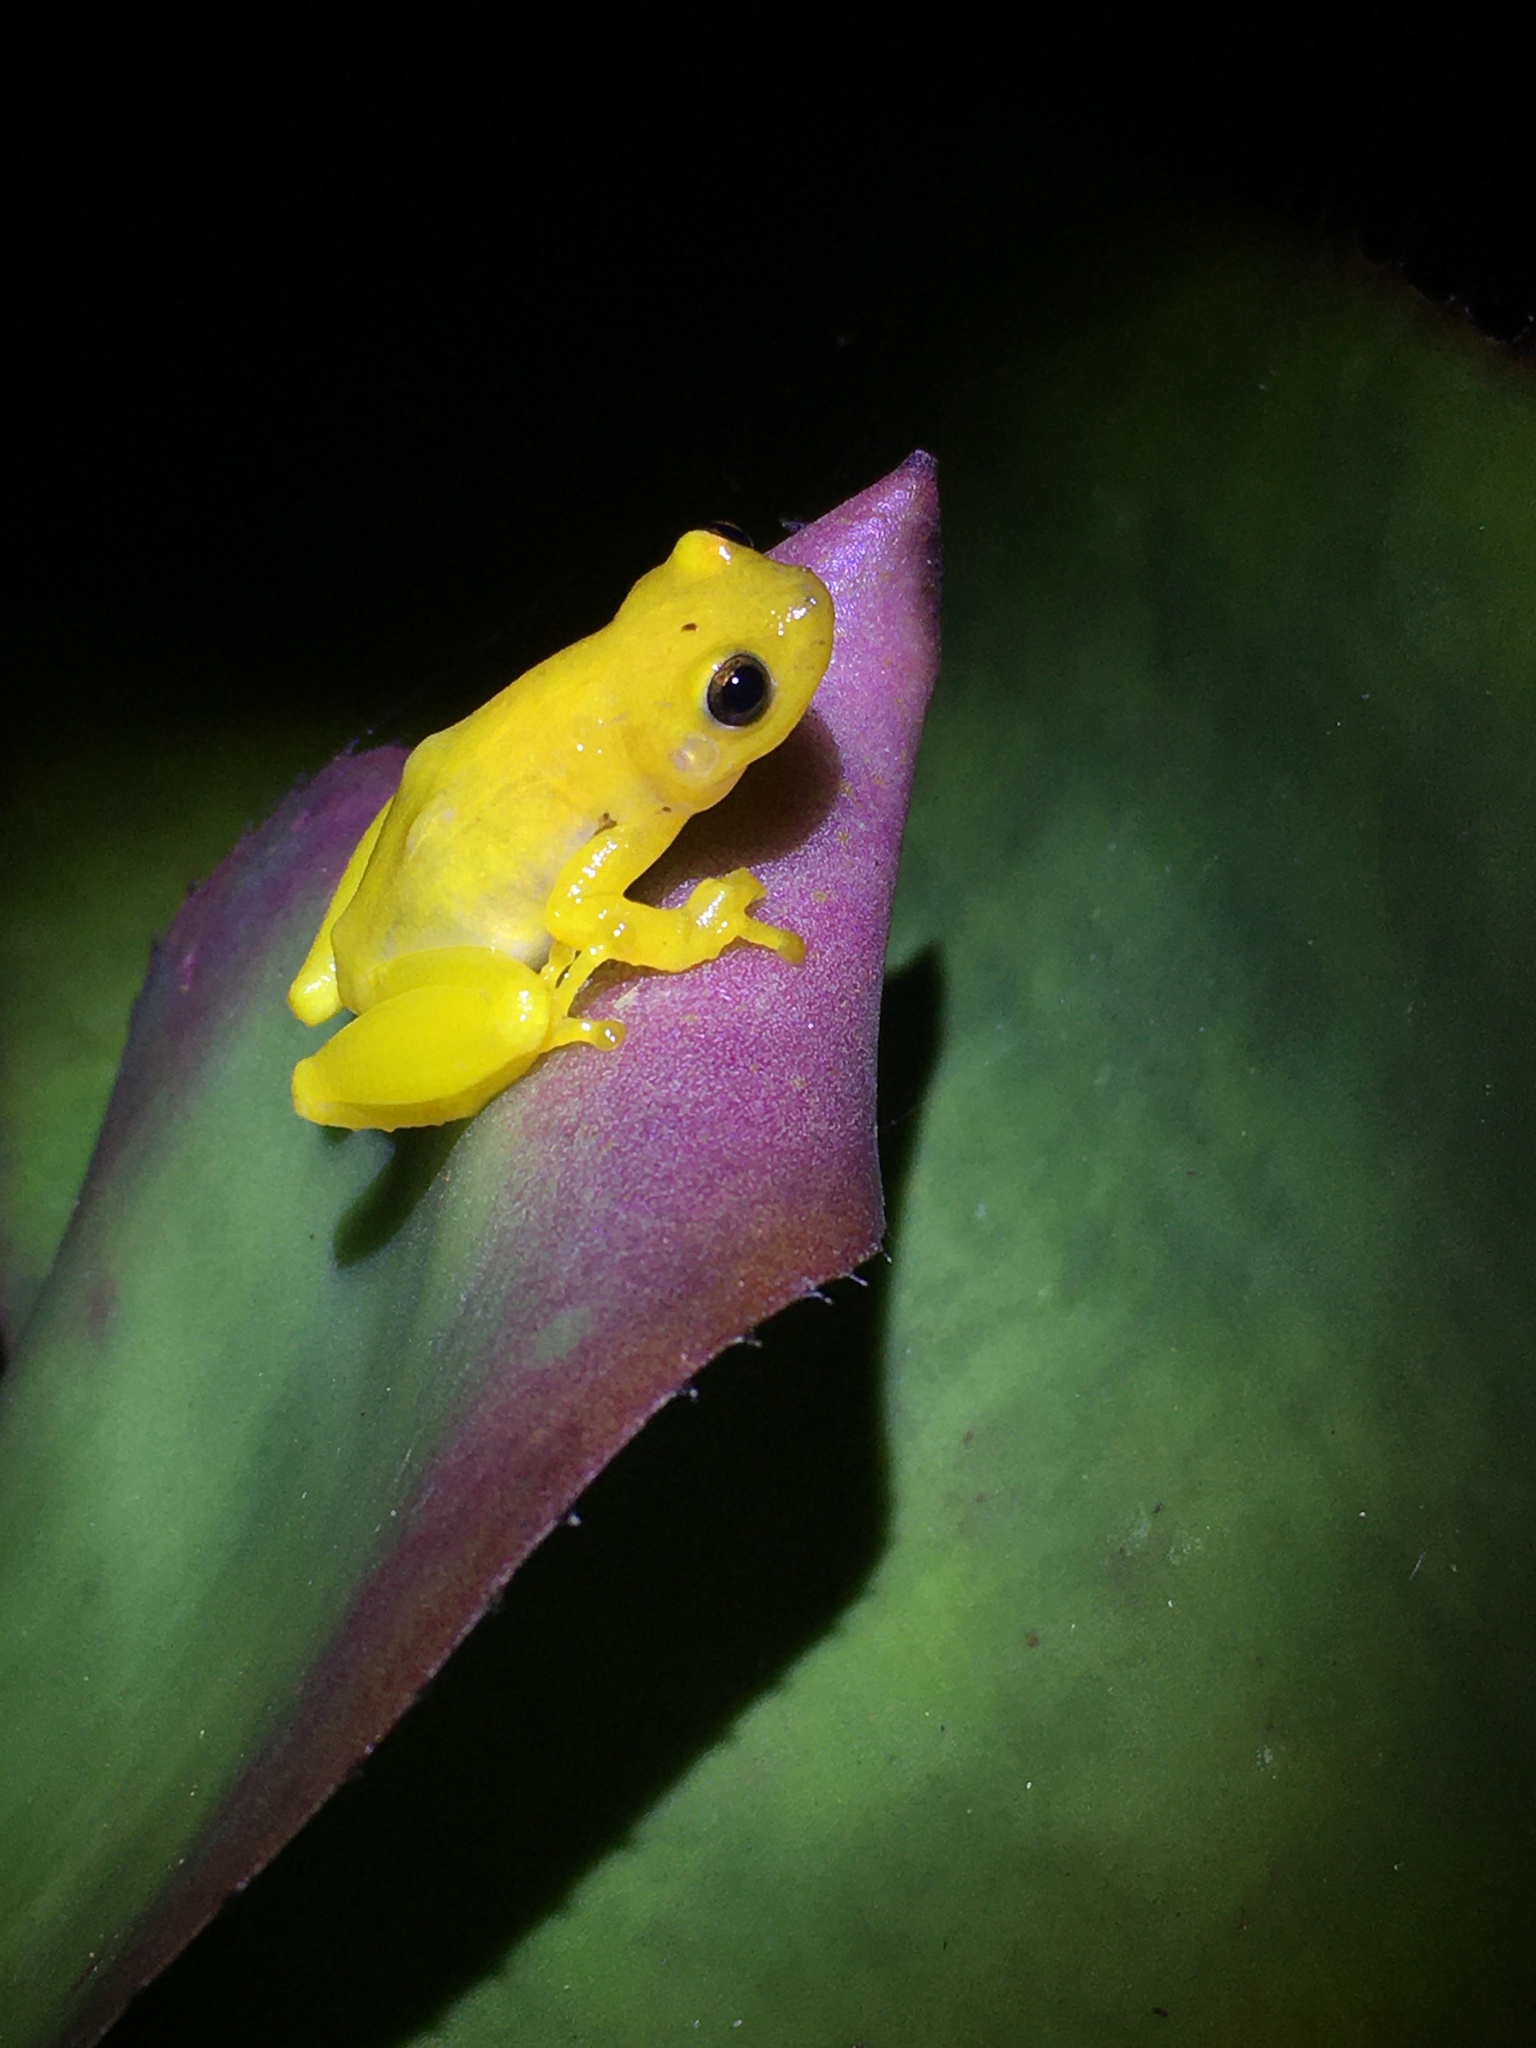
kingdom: Animalia
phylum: Chordata
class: Amphibia
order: Anura
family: Hylidae
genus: Phyllodytes
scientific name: Phyllodytes edelmoi
